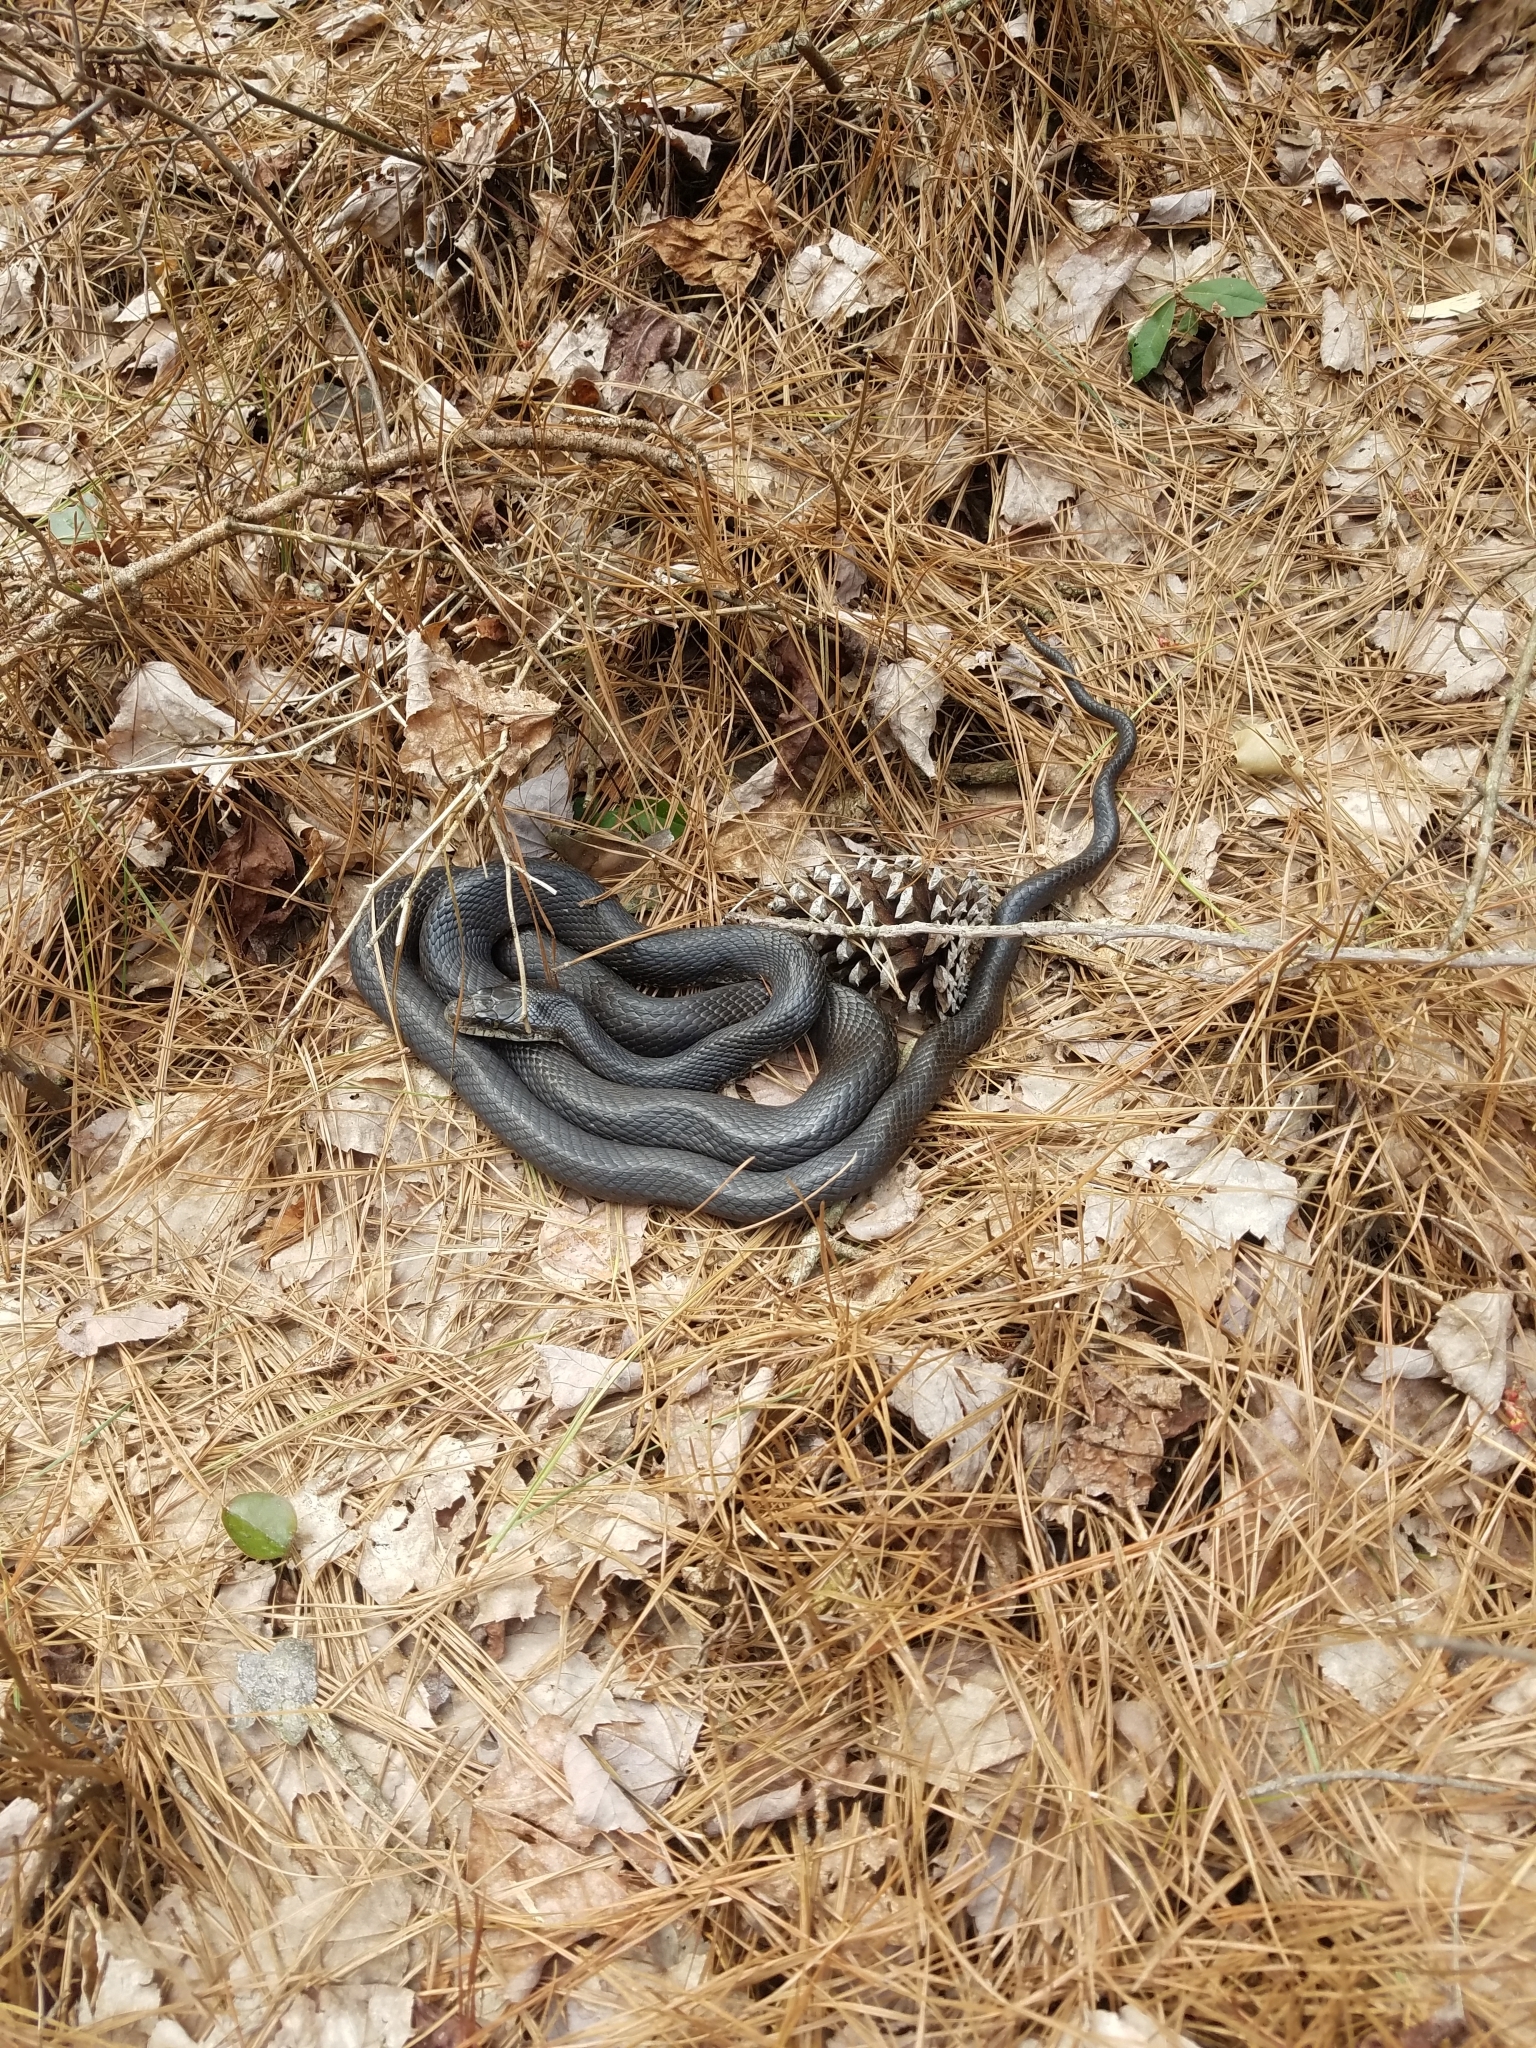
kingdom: Animalia
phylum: Chordata
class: Squamata
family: Colubridae
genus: Pantherophis
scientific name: Pantherophis alleghaniensis
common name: Eastern rat snake
